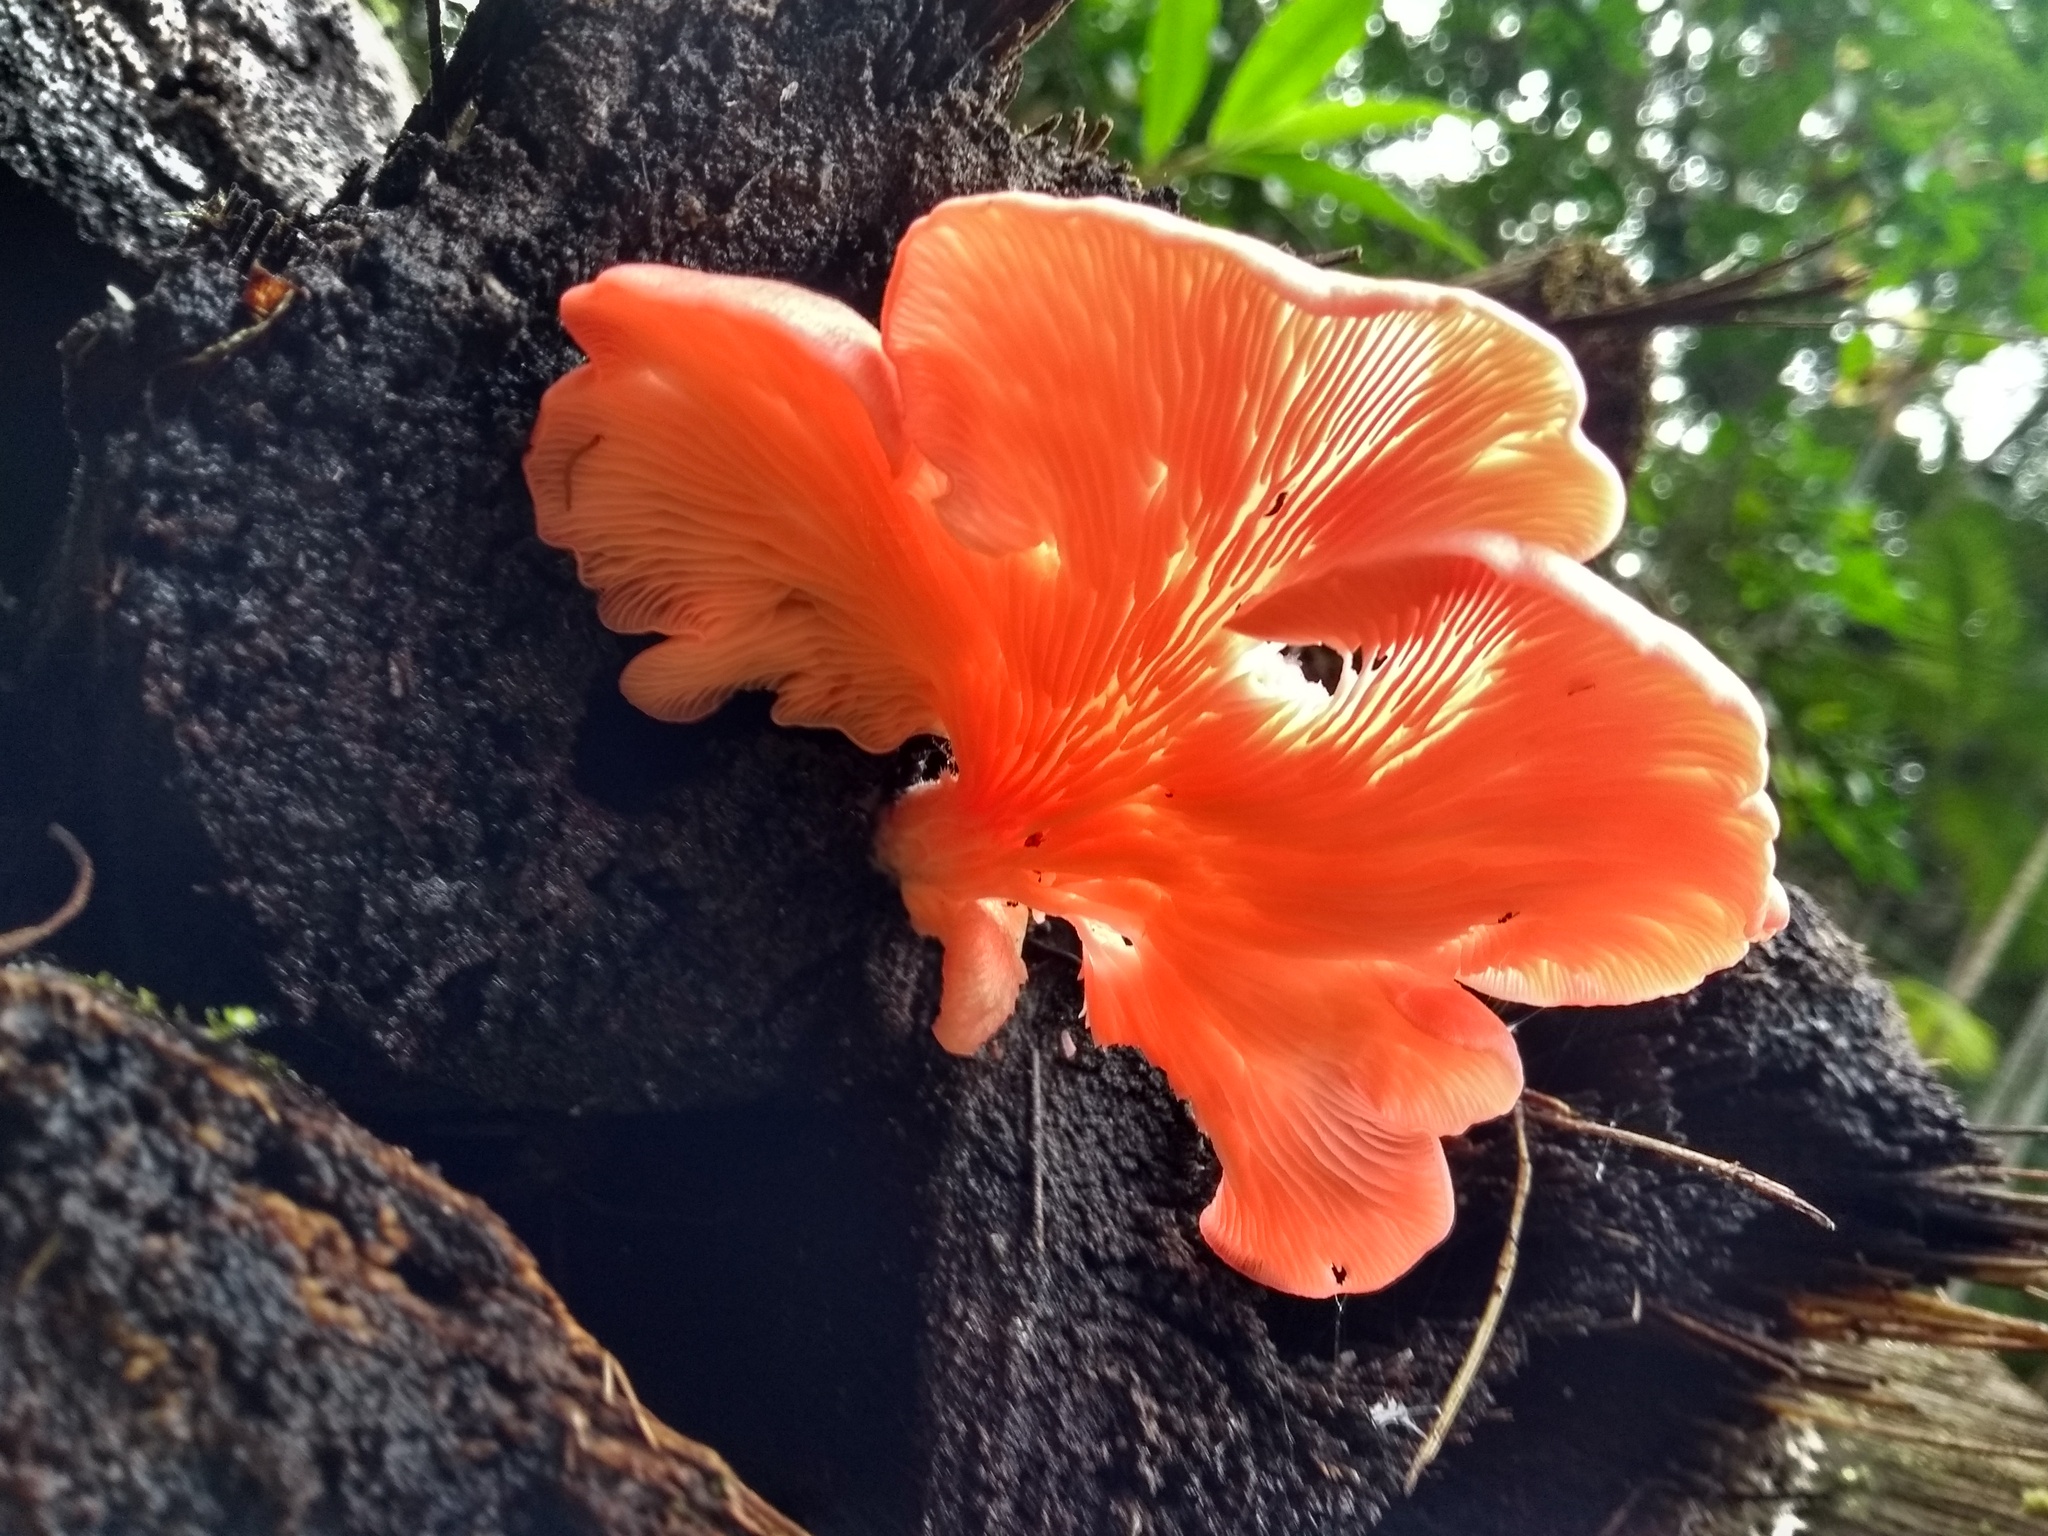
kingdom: Fungi
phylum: Basidiomycota
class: Agaricomycetes
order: Agaricales
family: Pleurotaceae
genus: Pleurotus
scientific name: Pleurotus djamor
